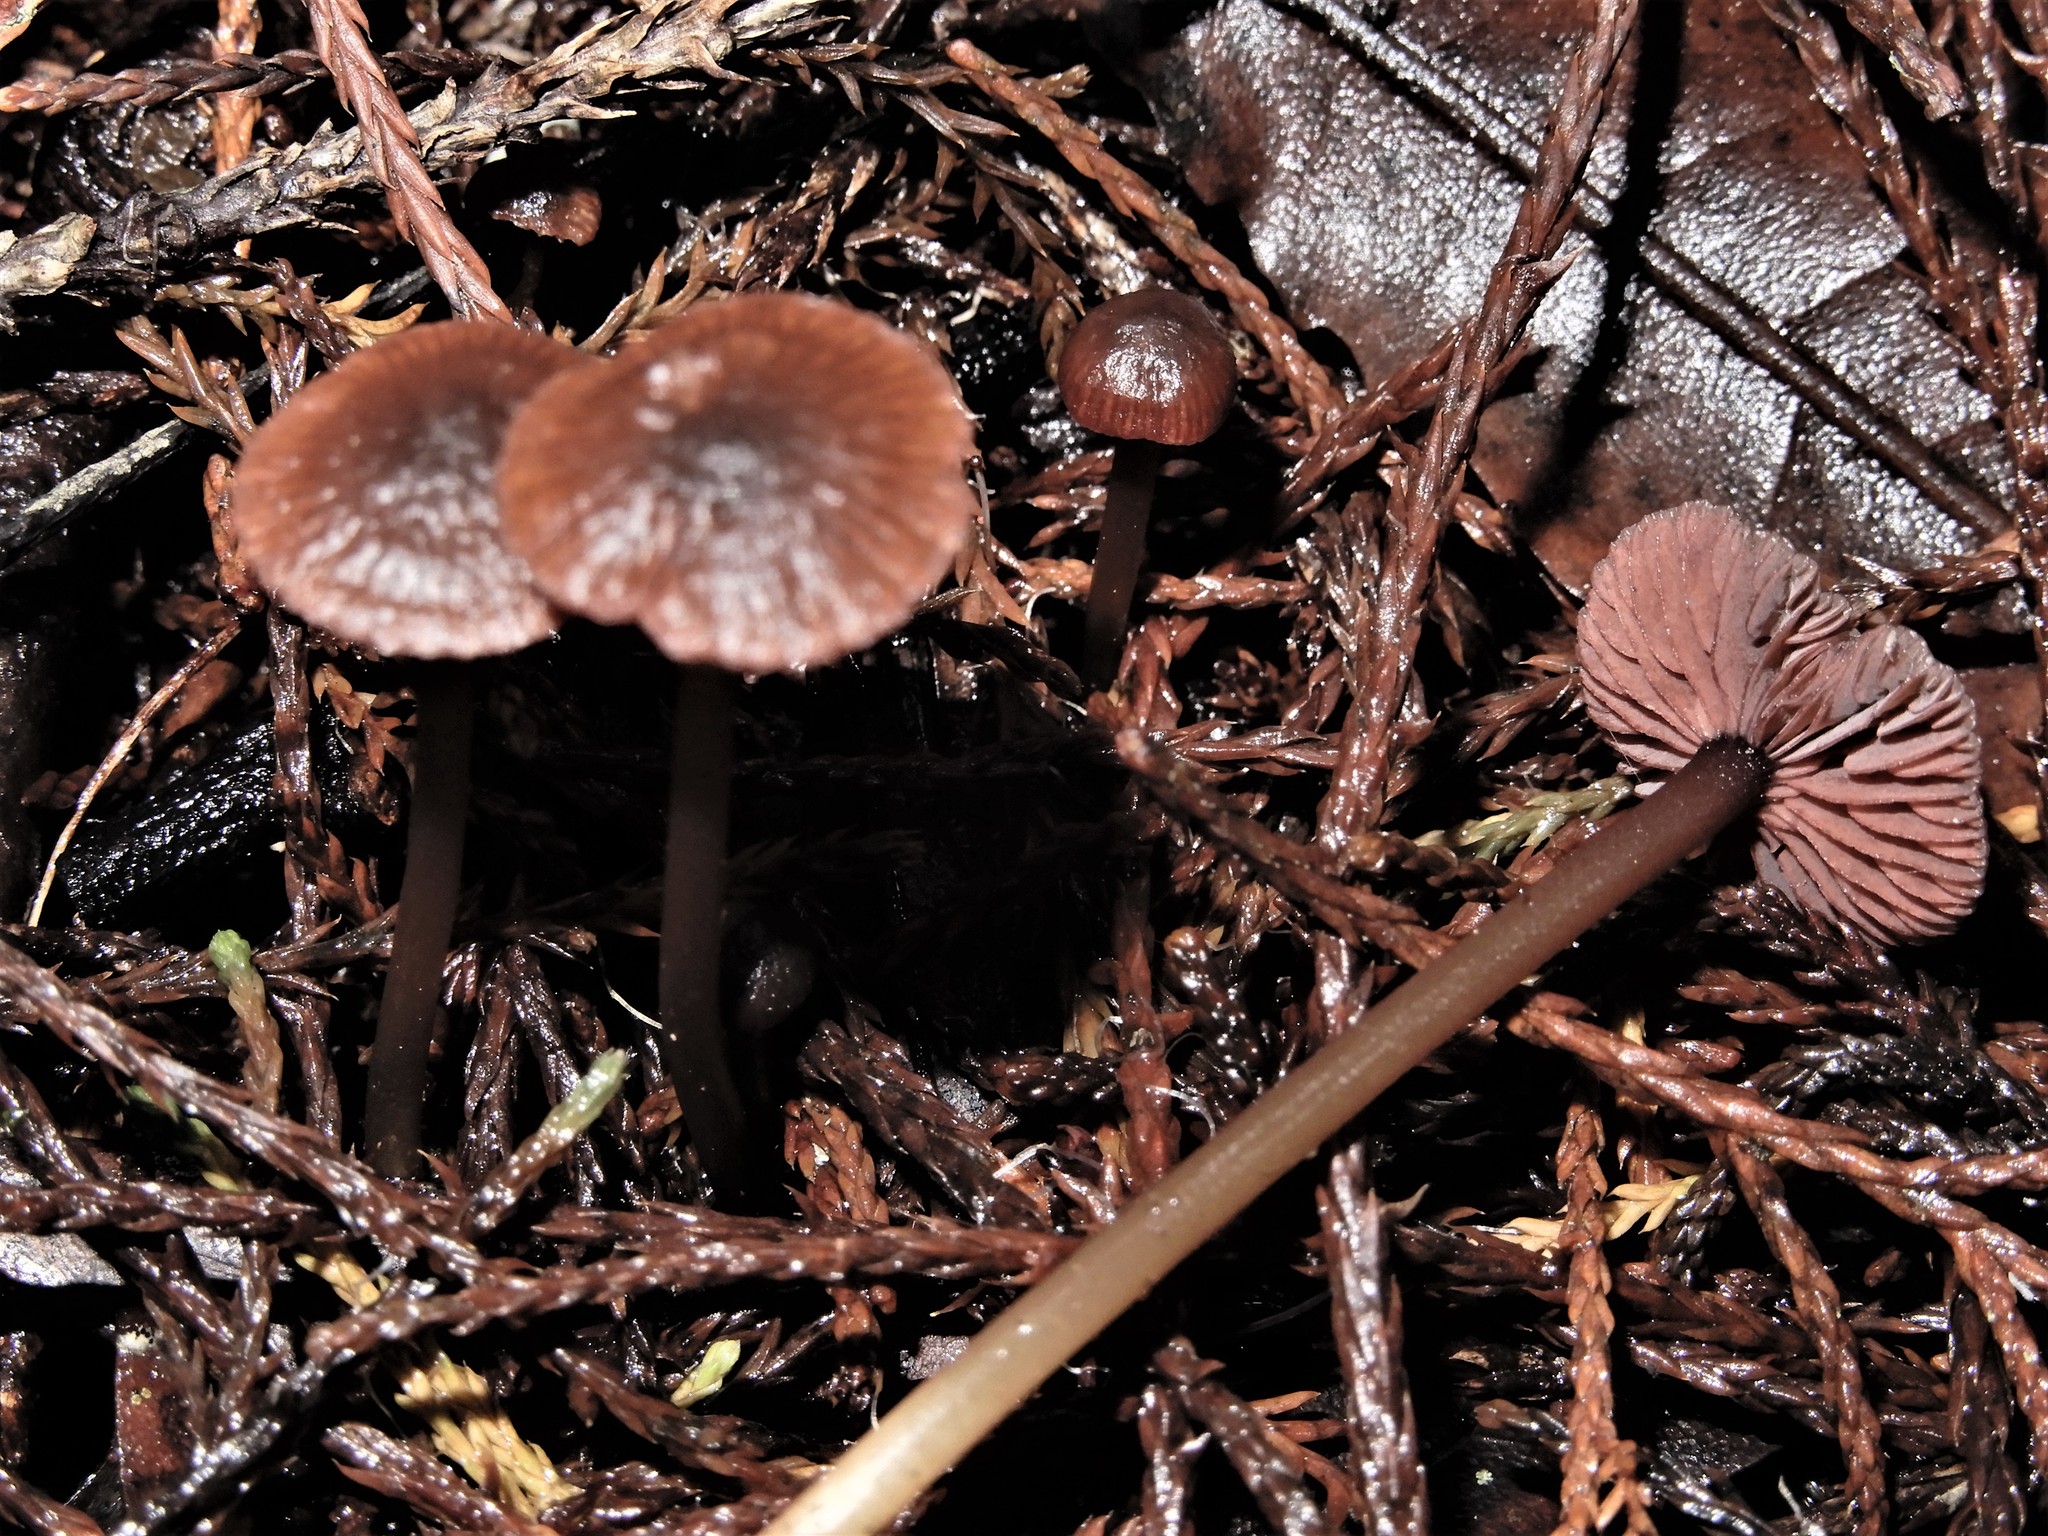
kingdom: Fungi
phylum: Basidiomycota
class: Agaricomycetes
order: Agaricales
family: Mycenaceae
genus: Mycena
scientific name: Mycena
